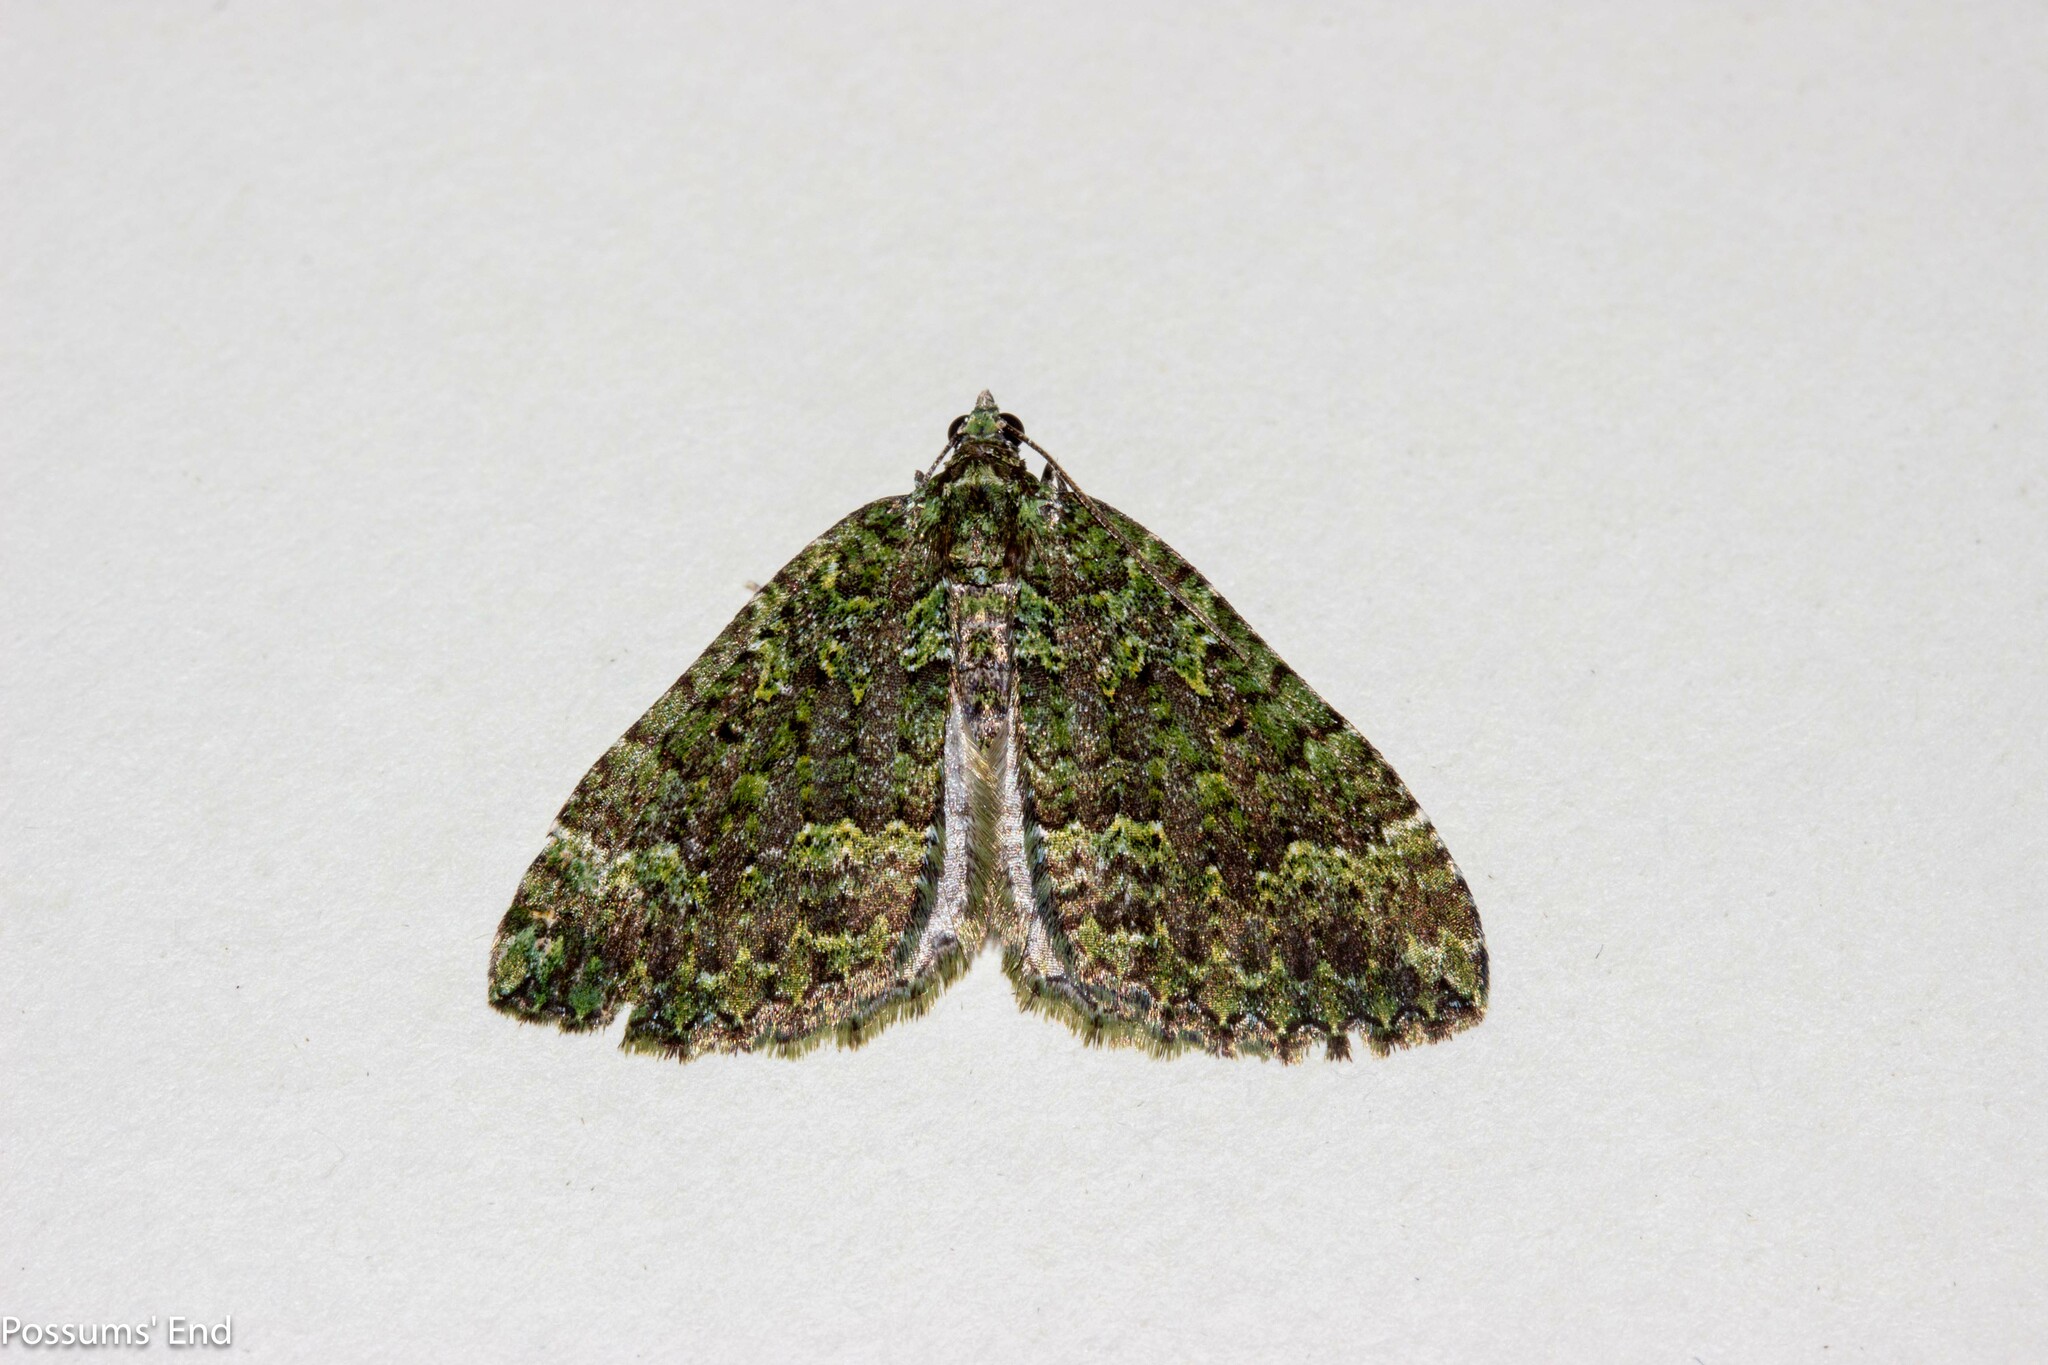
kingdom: Animalia
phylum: Arthropoda
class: Insecta
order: Lepidoptera
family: Geometridae
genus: Austrocidaria
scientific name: Austrocidaria callichlora
